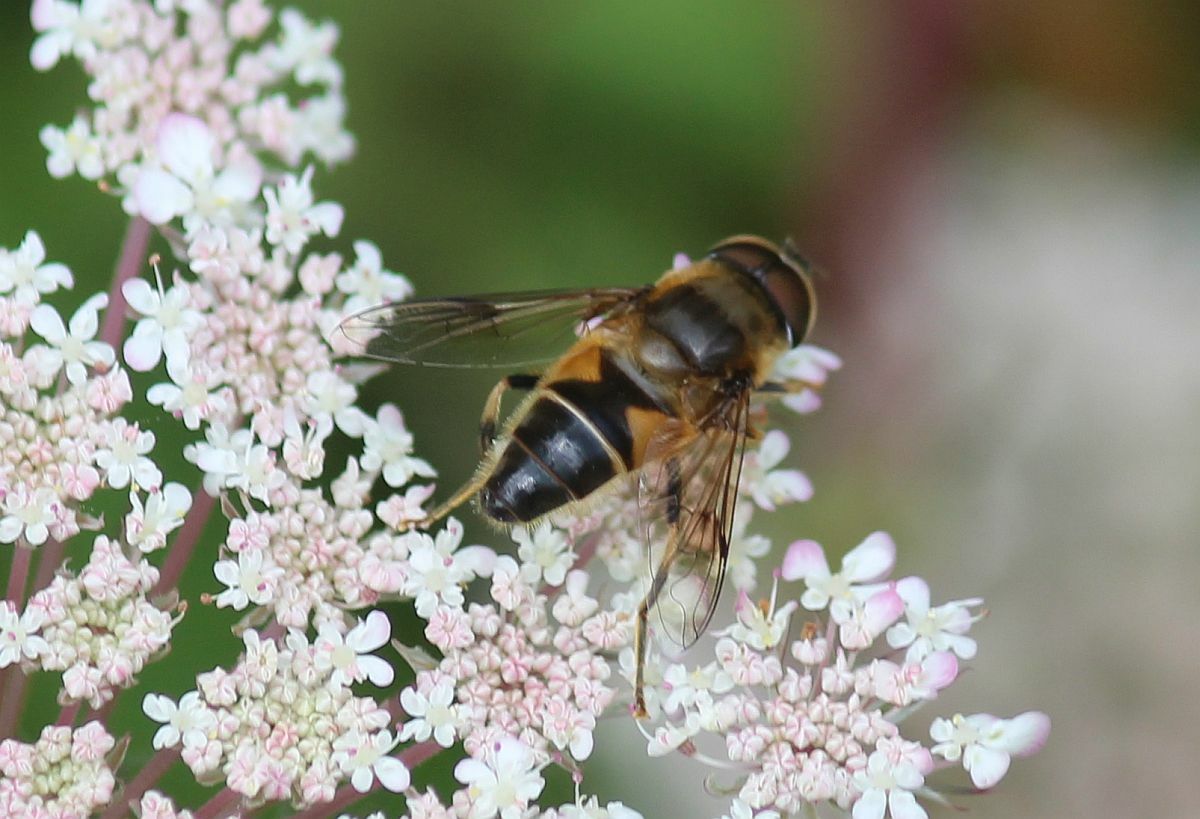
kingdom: Animalia
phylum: Arthropoda
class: Insecta
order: Diptera
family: Syrphidae
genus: Eristalis
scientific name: Eristalis pertinax
